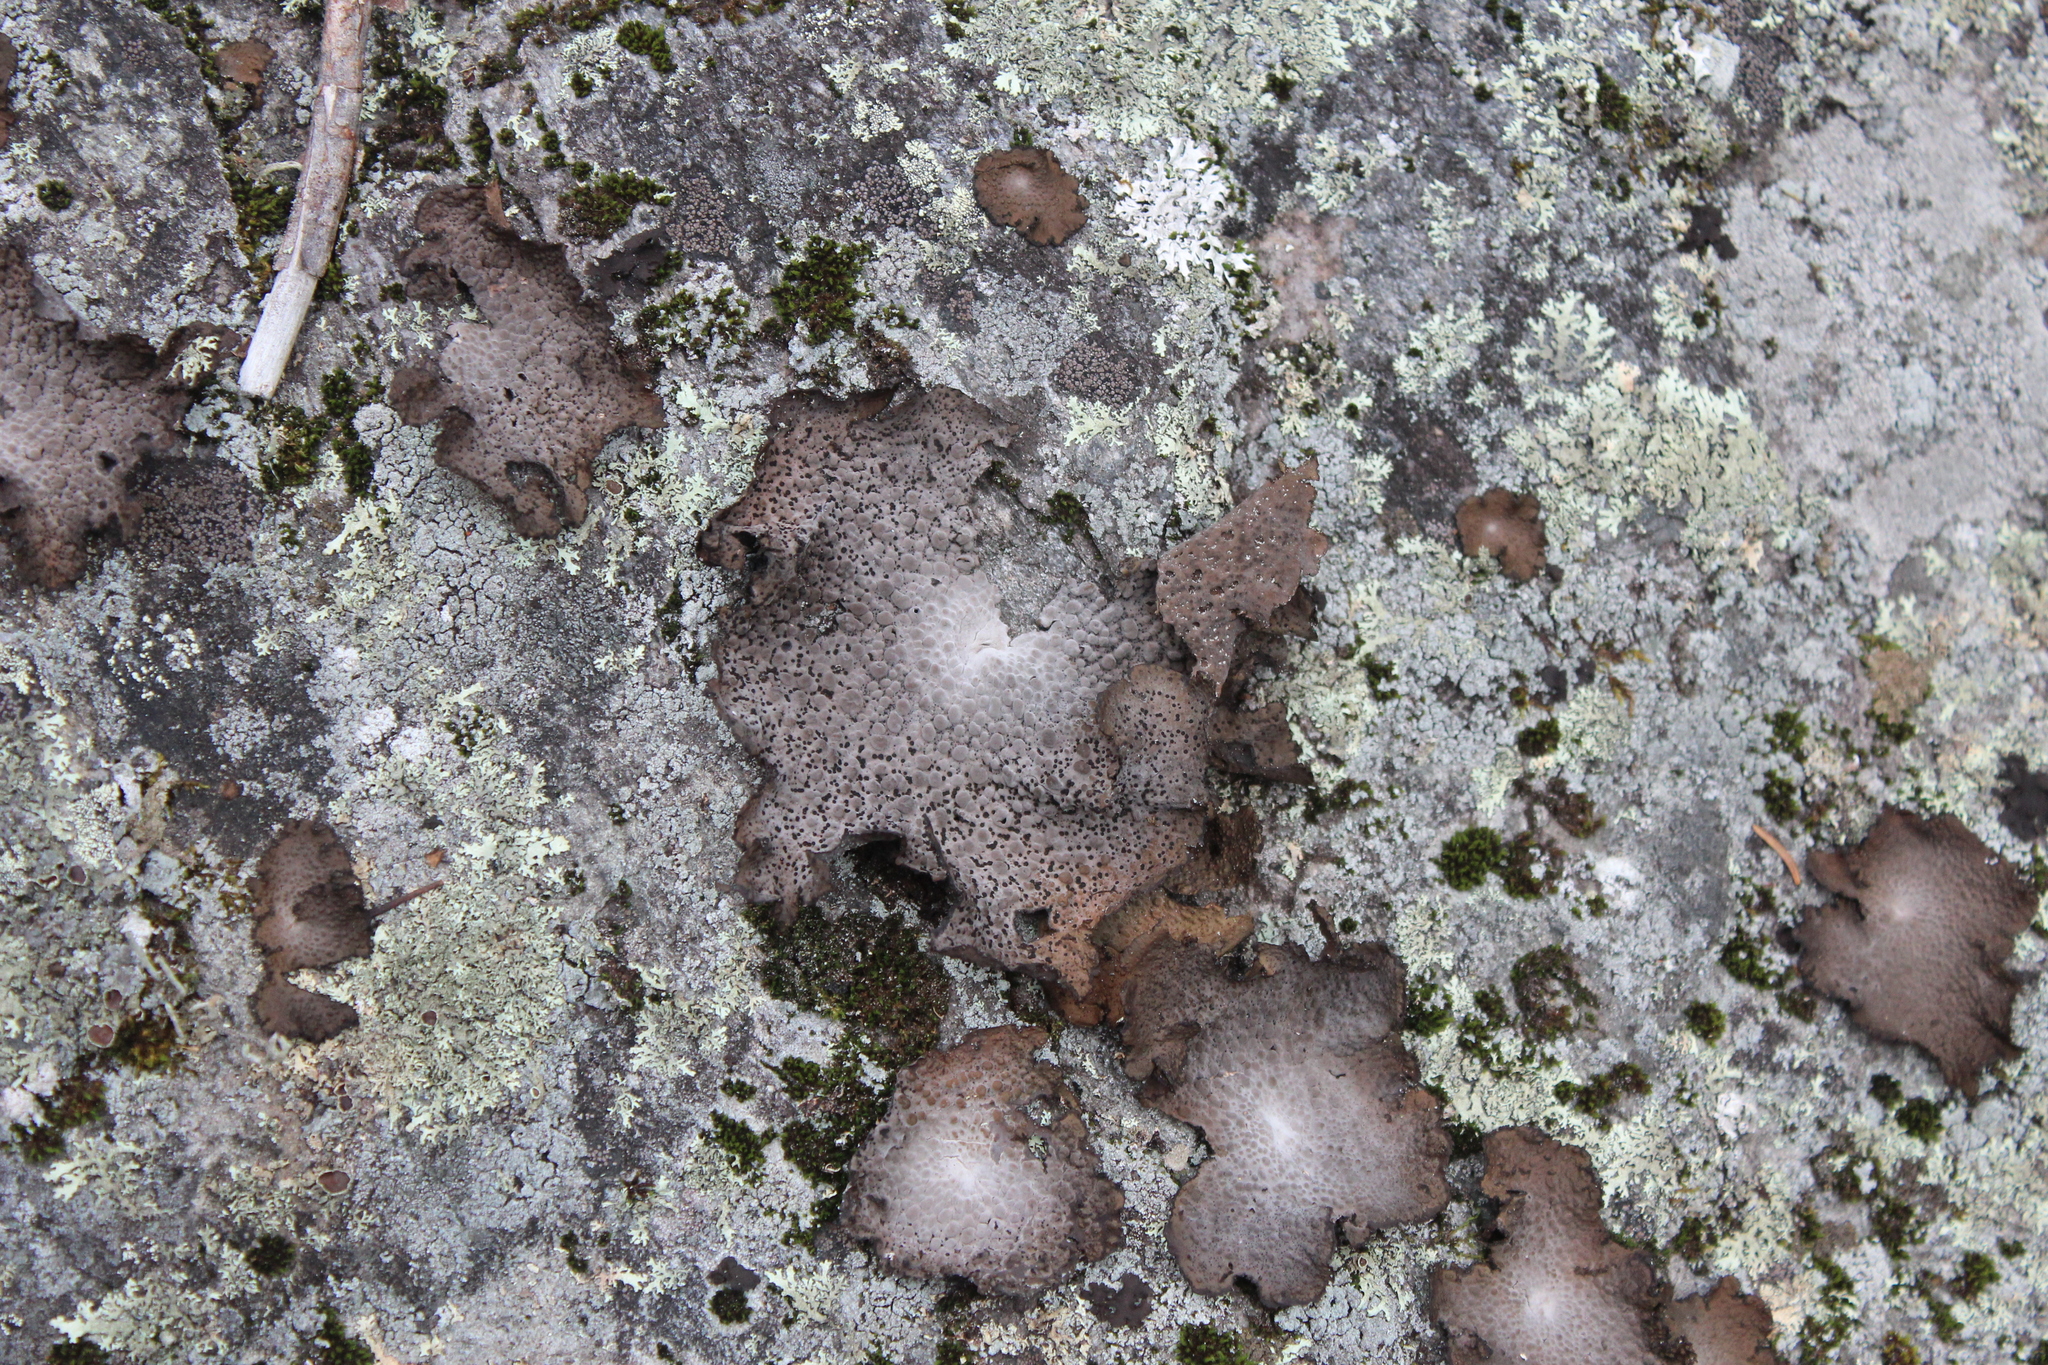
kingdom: Fungi
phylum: Ascomycota
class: Lecanoromycetes
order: Umbilicariales
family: Umbilicariaceae
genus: Lasallia
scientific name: Lasallia papulosa
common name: Common toadskin lichen
